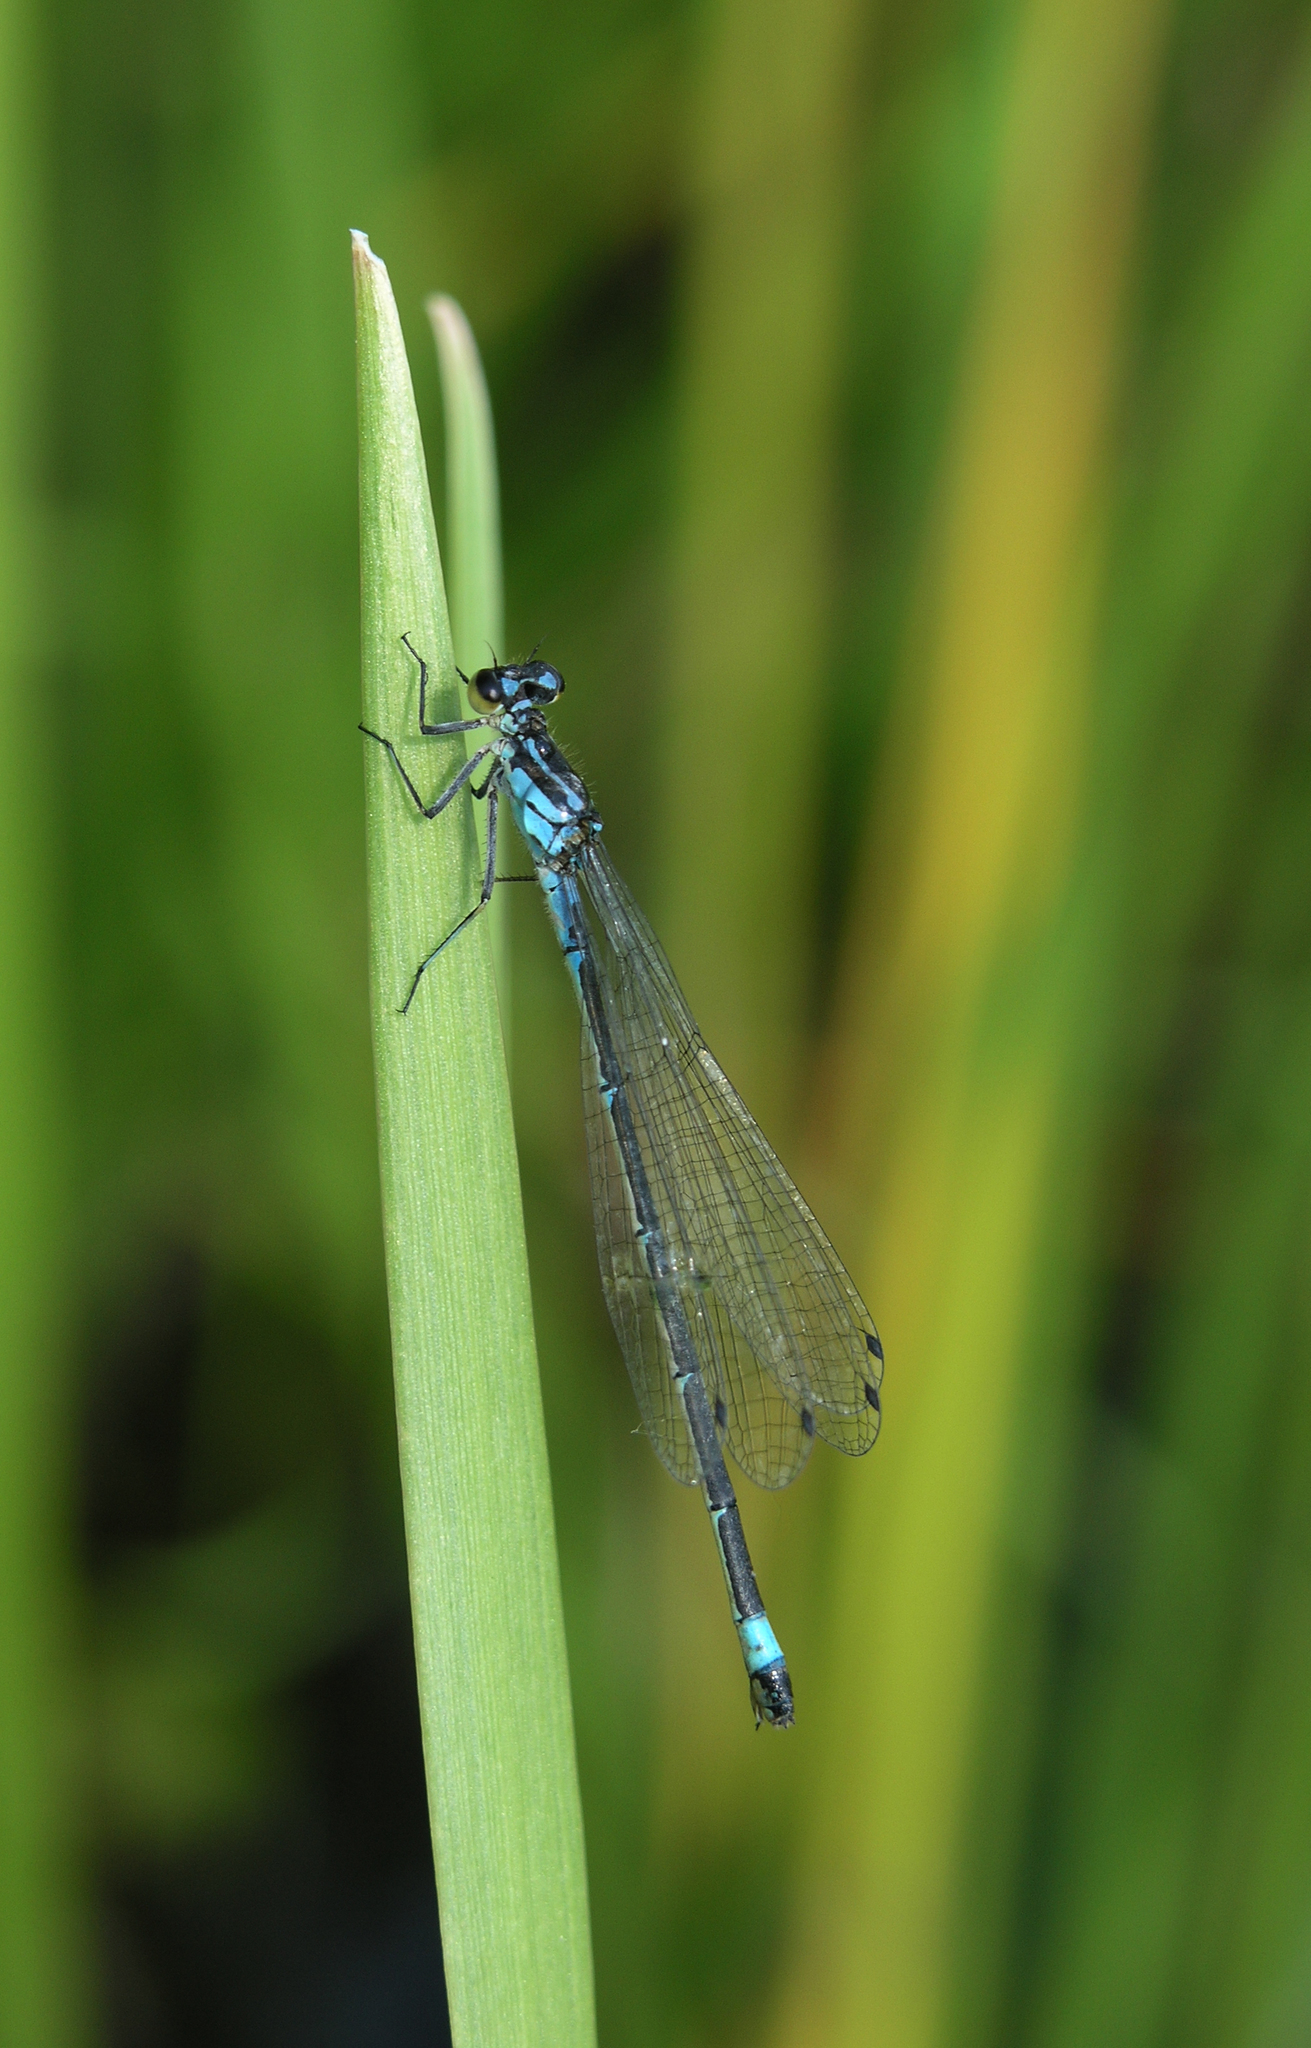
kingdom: Animalia
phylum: Arthropoda
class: Insecta
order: Odonata
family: Coenagrionidae
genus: Coenagrion
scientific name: Coenagrion pulchellum
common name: Variable bluet
